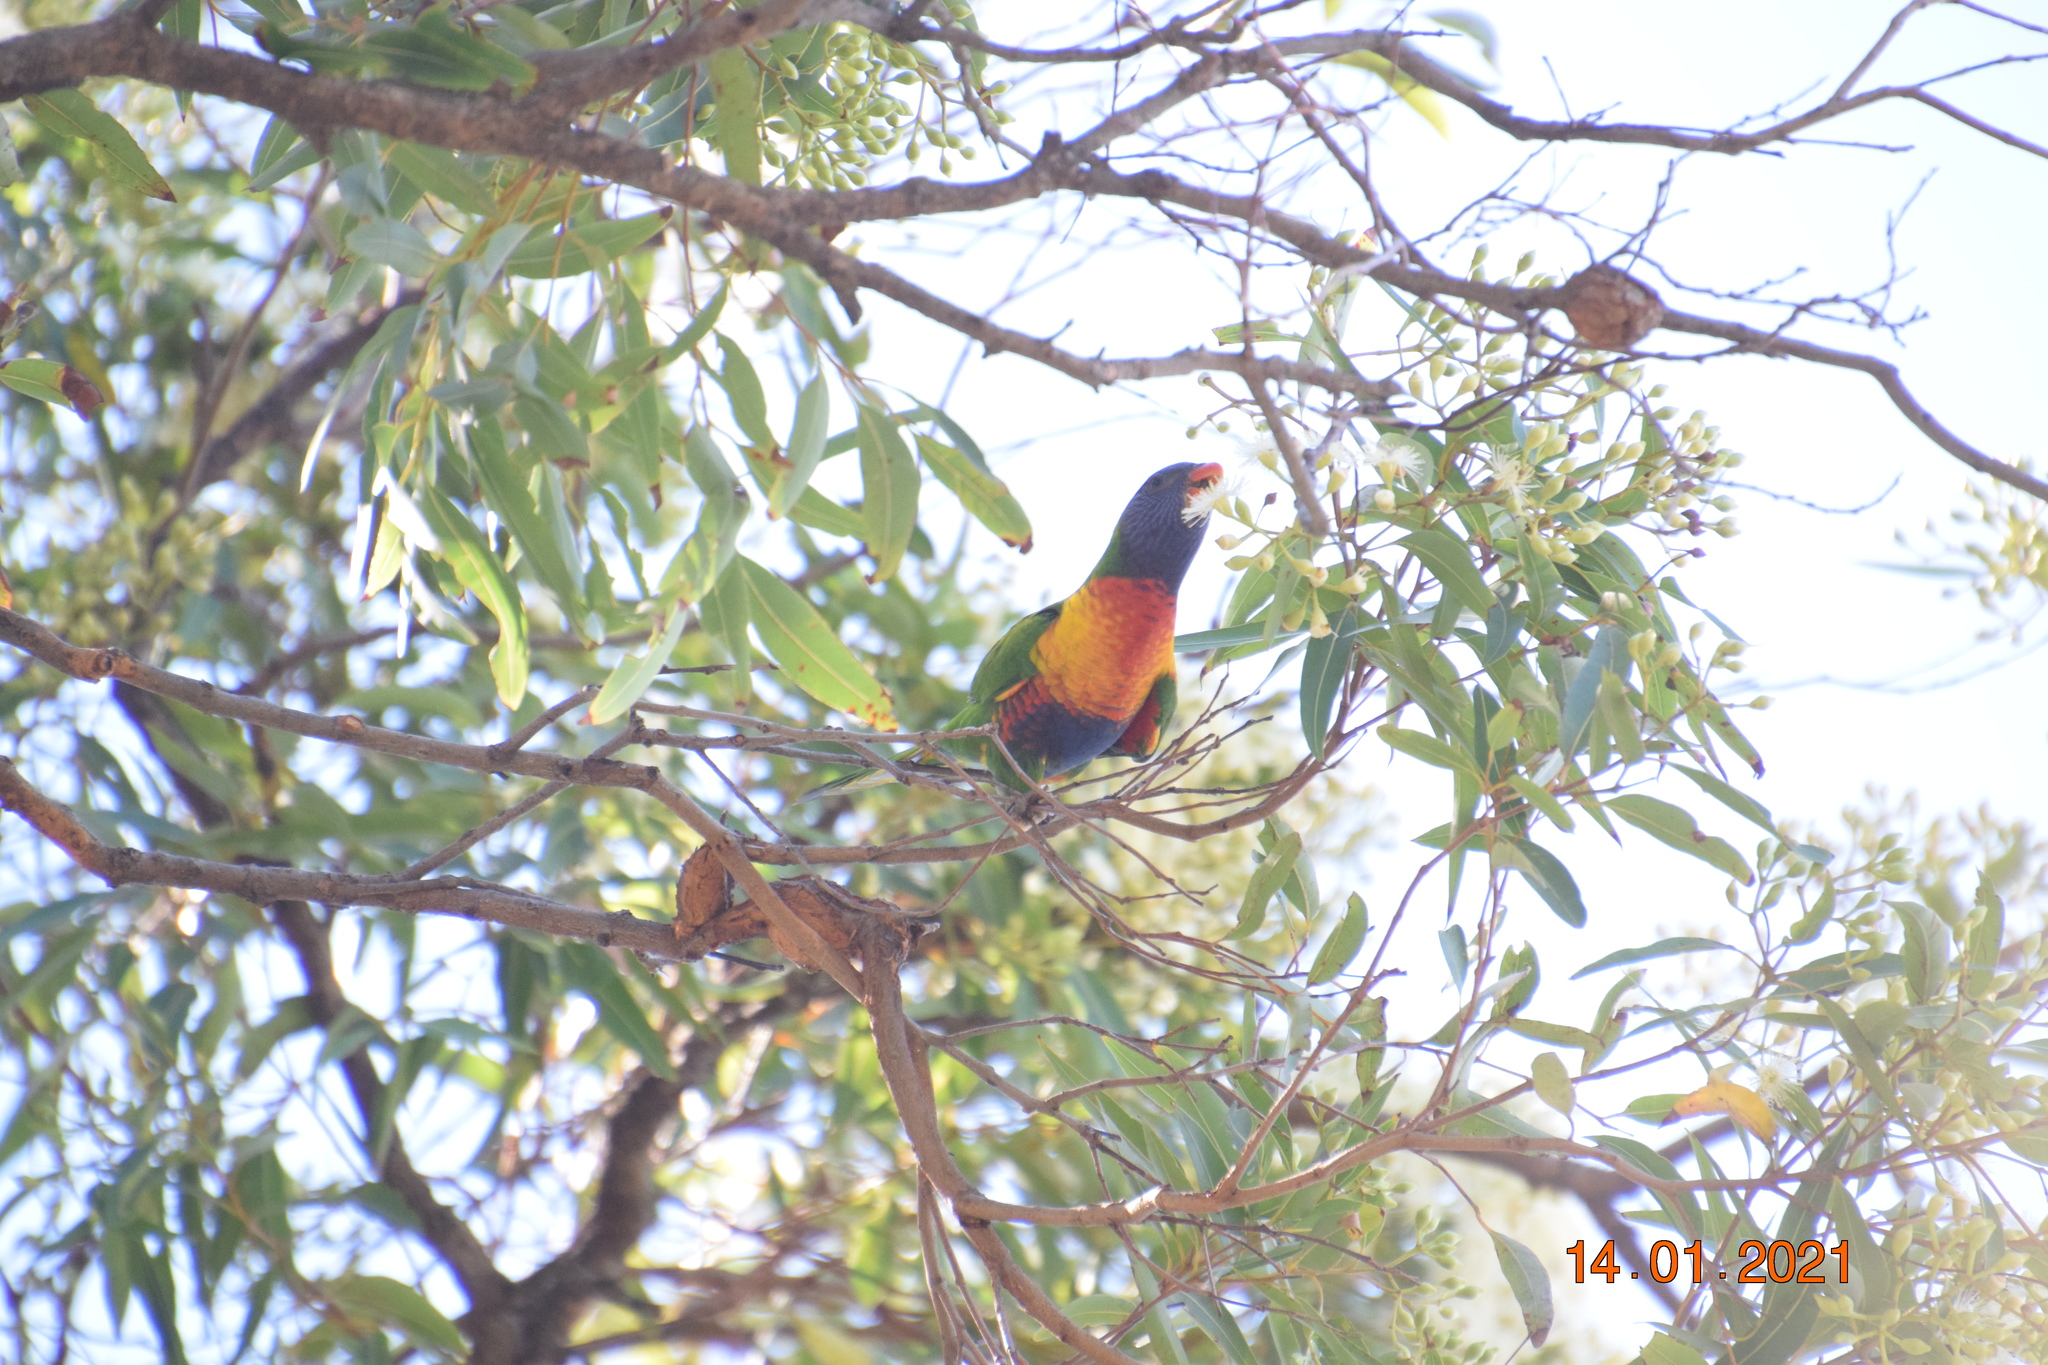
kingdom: Animalia
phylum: Chordata
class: Aves
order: Psittaciformes
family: Psittacidae
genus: Trichoglossus
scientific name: Trichoglossus haematodus
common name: Coconut lorikeet
